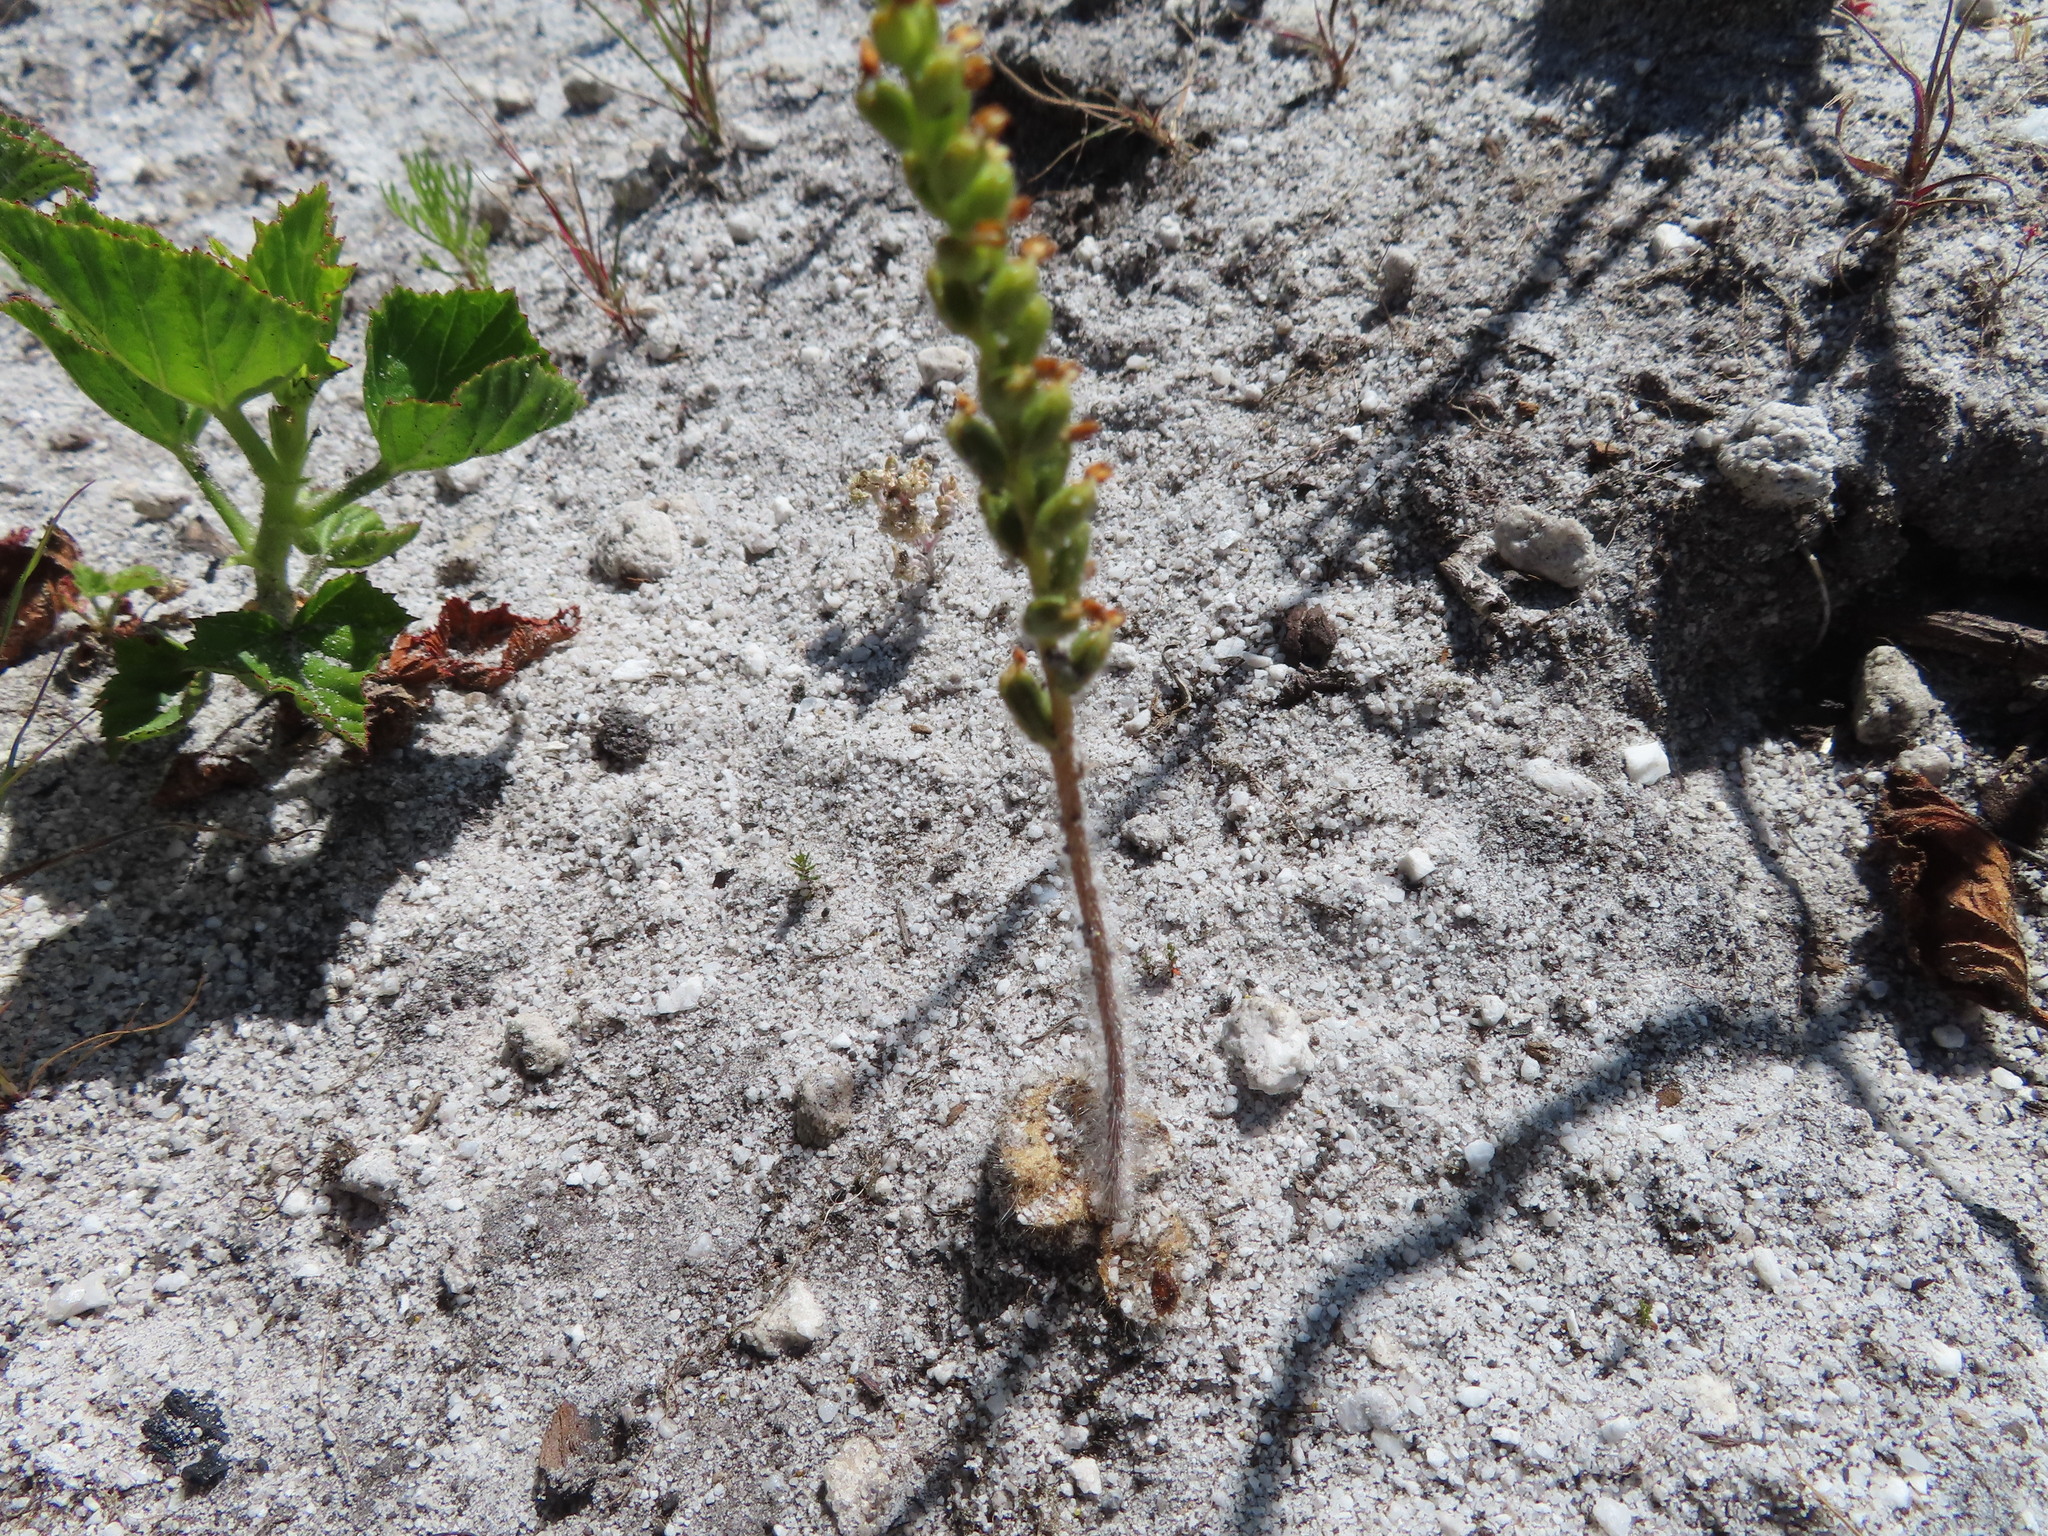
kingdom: Plantae
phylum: Tracheophyta
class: Liliopsida
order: Asparagales
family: Orchidaceae
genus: Holothrix
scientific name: Holothrix villosa
